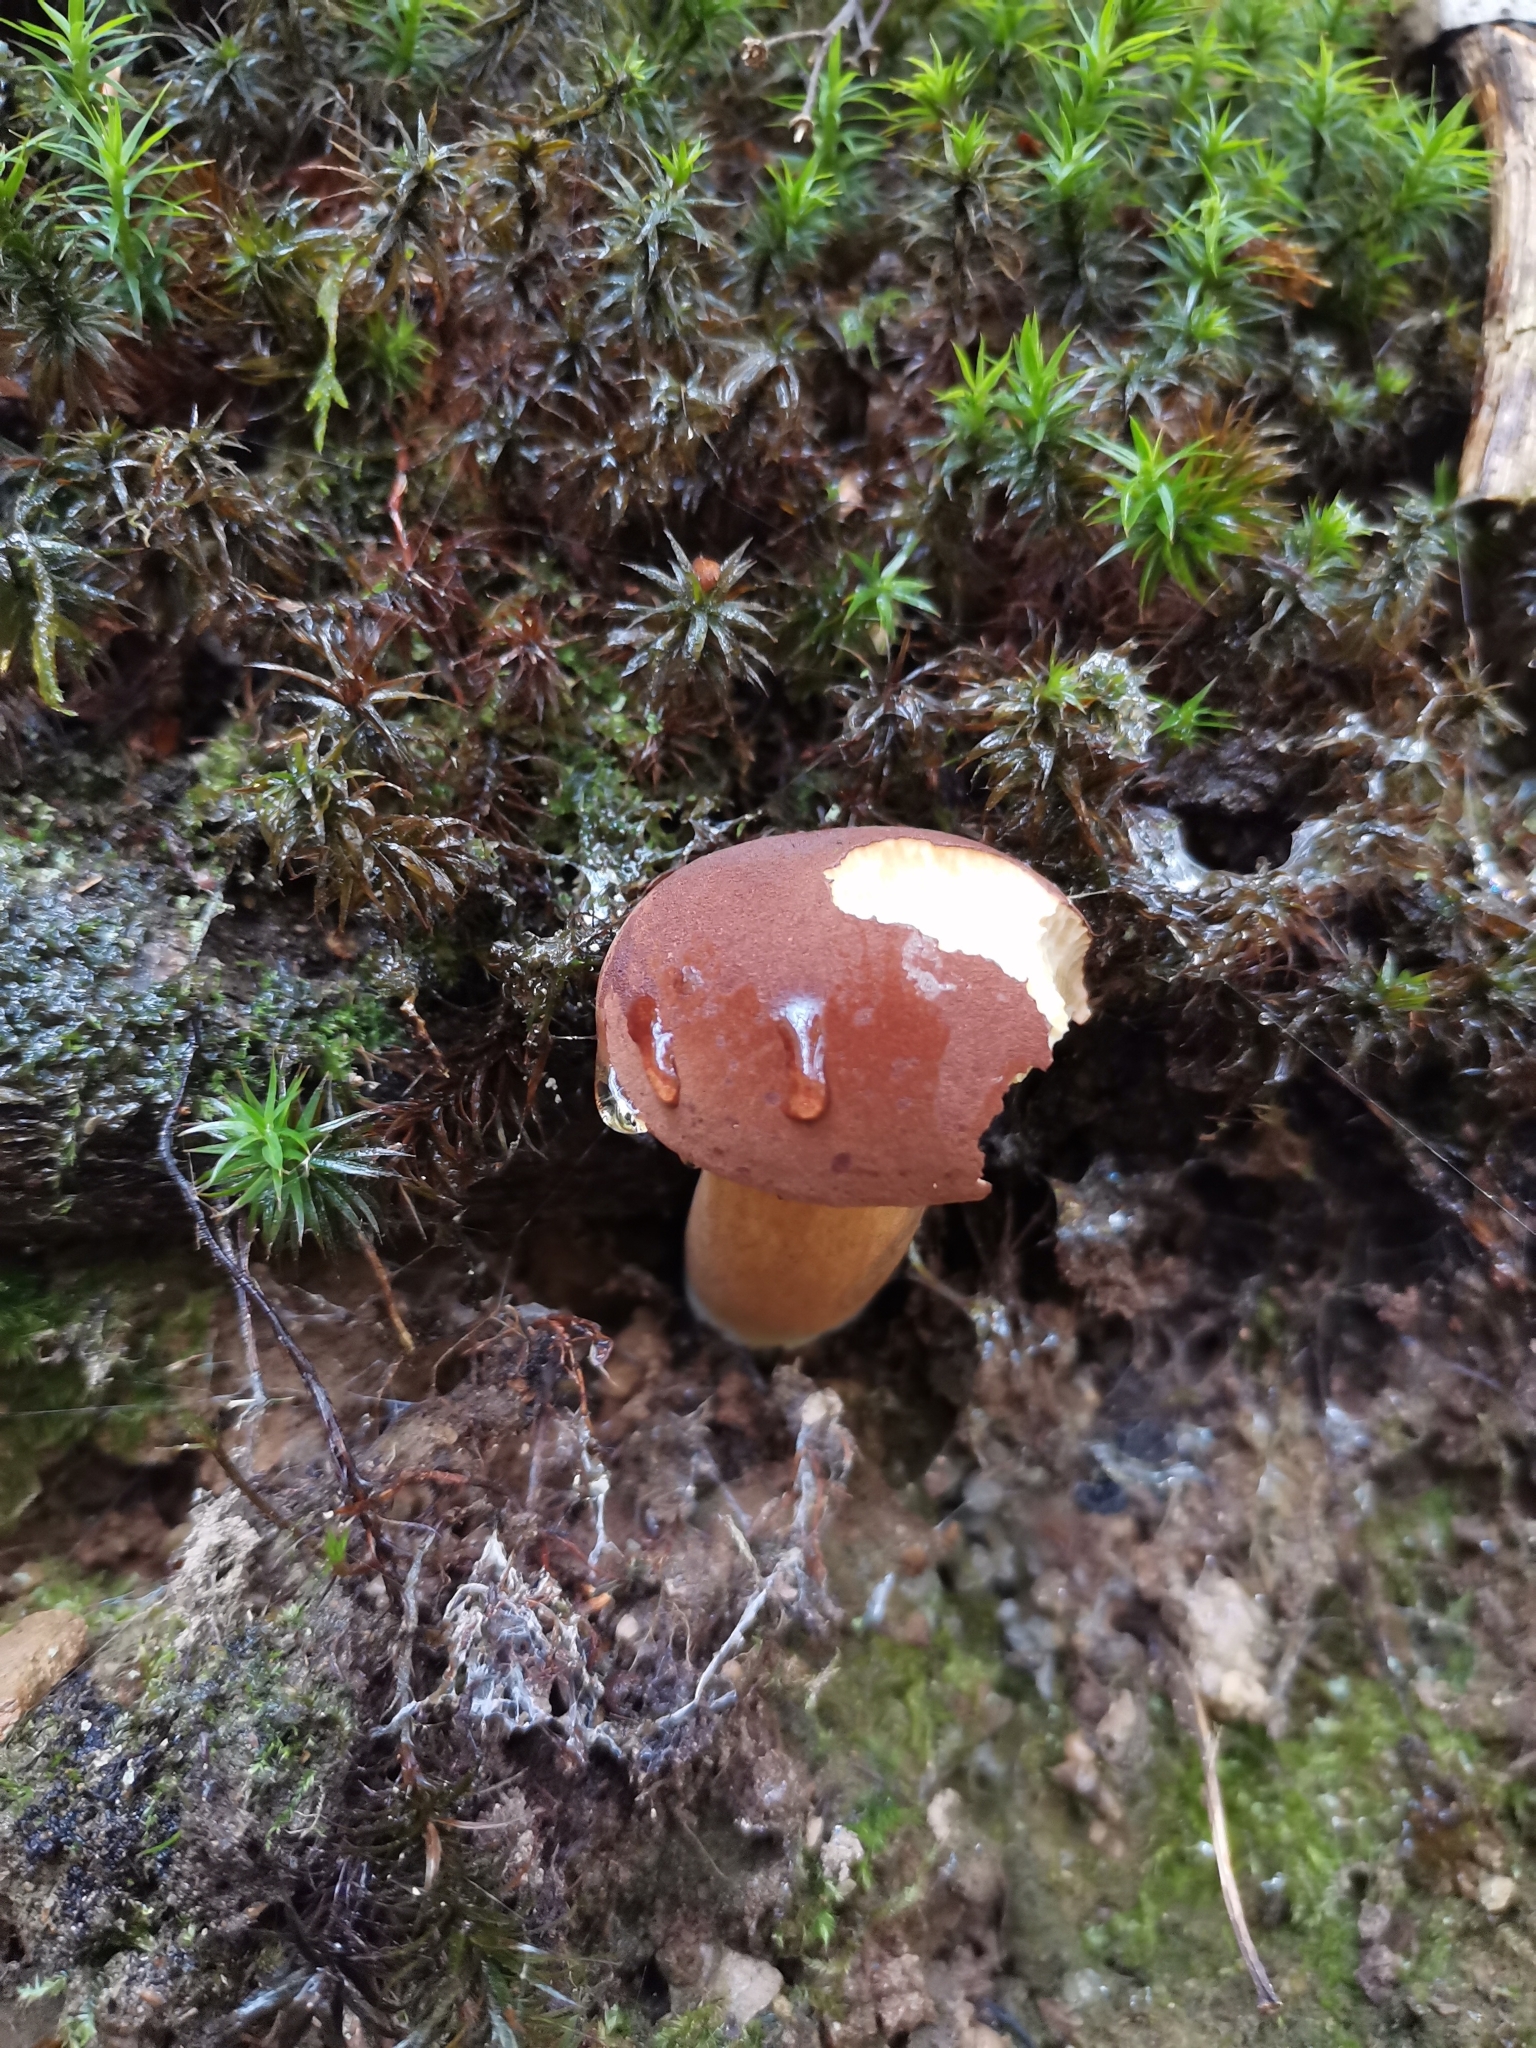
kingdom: Fungi
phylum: Basidiomycota
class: Agaricomycetes
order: Boletales
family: Boletaceae
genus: Imleria
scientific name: Imleria badia
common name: Bay bolete
